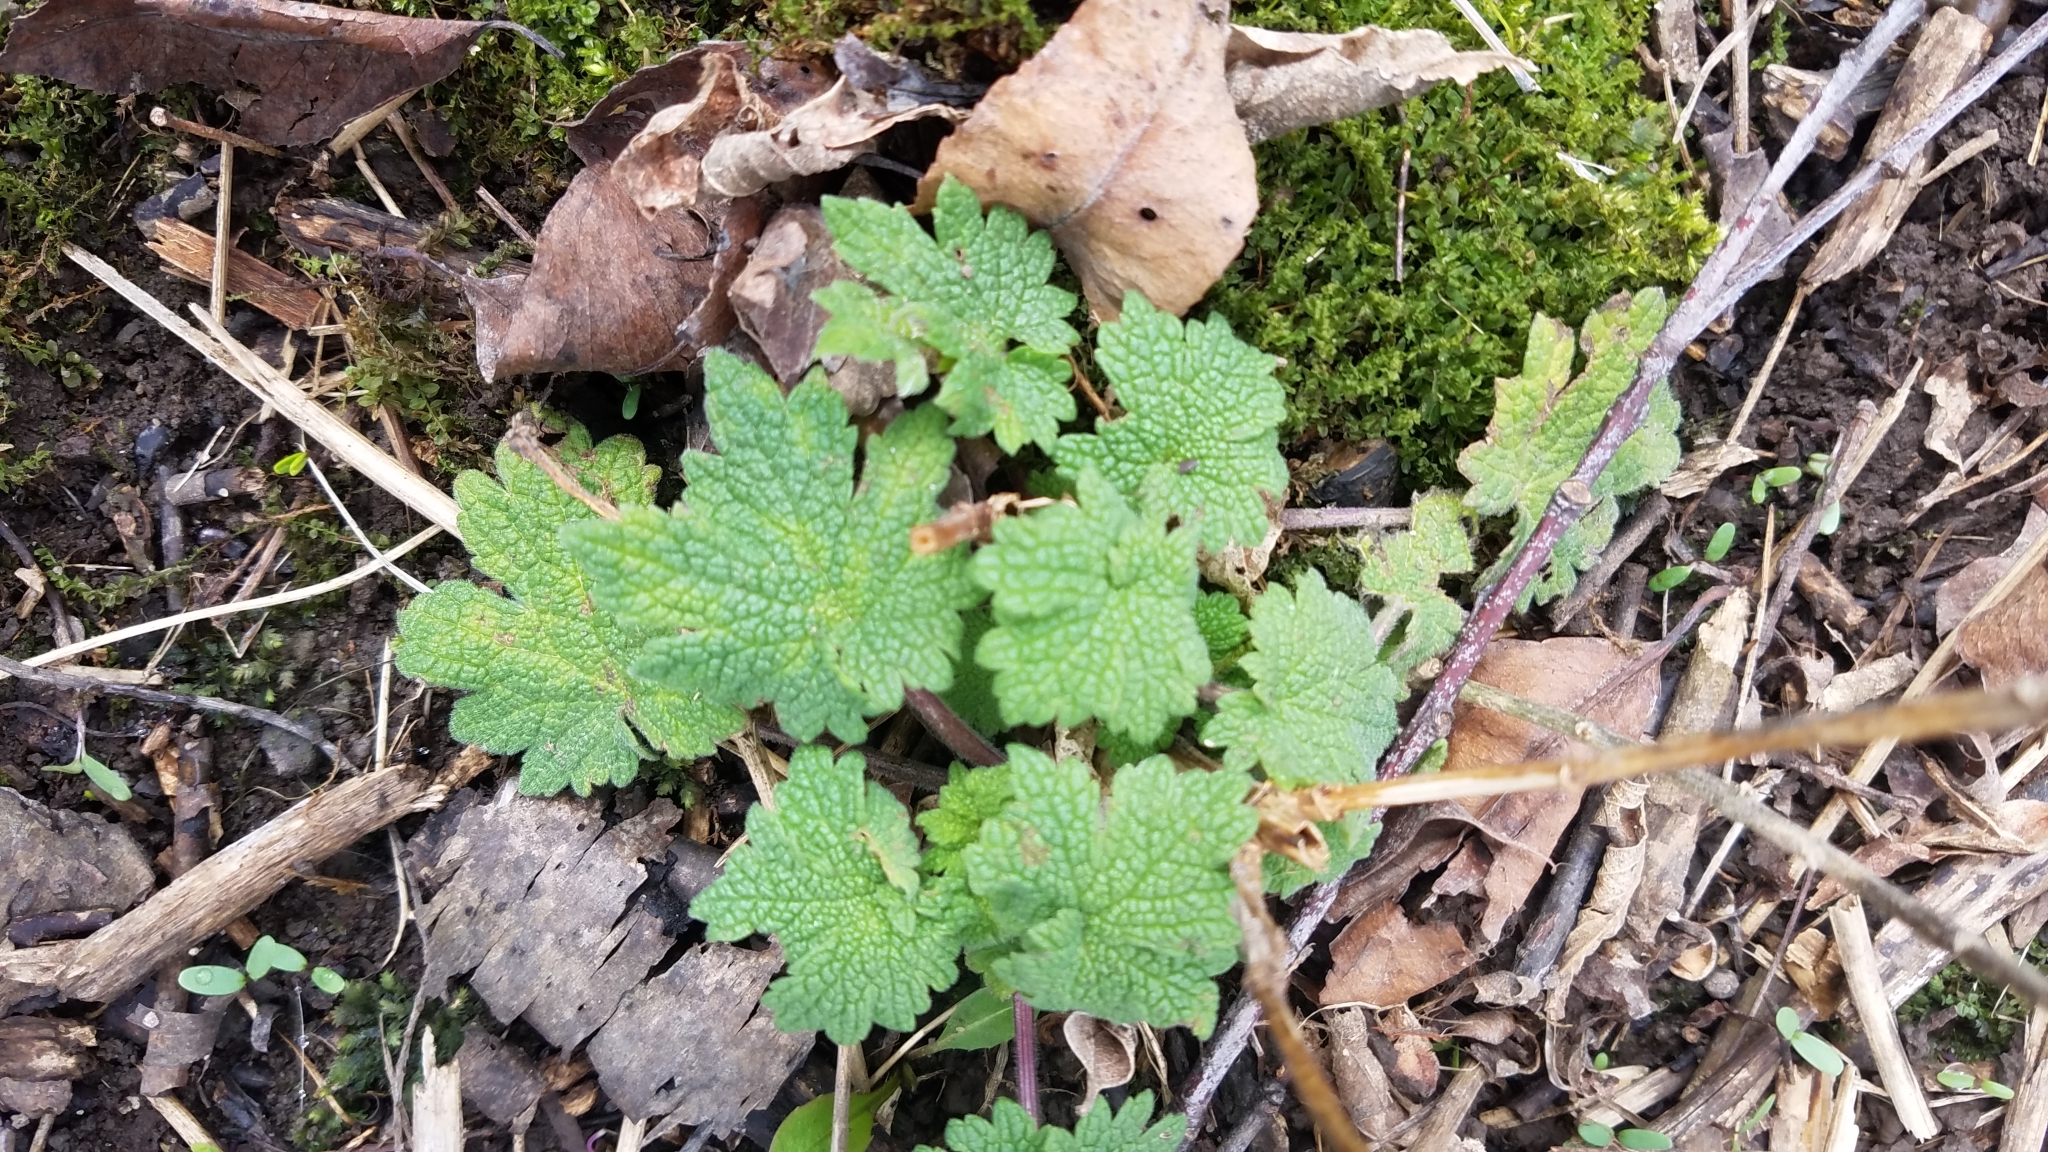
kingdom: Plantae
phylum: Tracheophyta
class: Magnoliopsida
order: Lamiales
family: Lamiaceae
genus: Leonurus
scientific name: Leonurus cardiaca
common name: Motherwort
